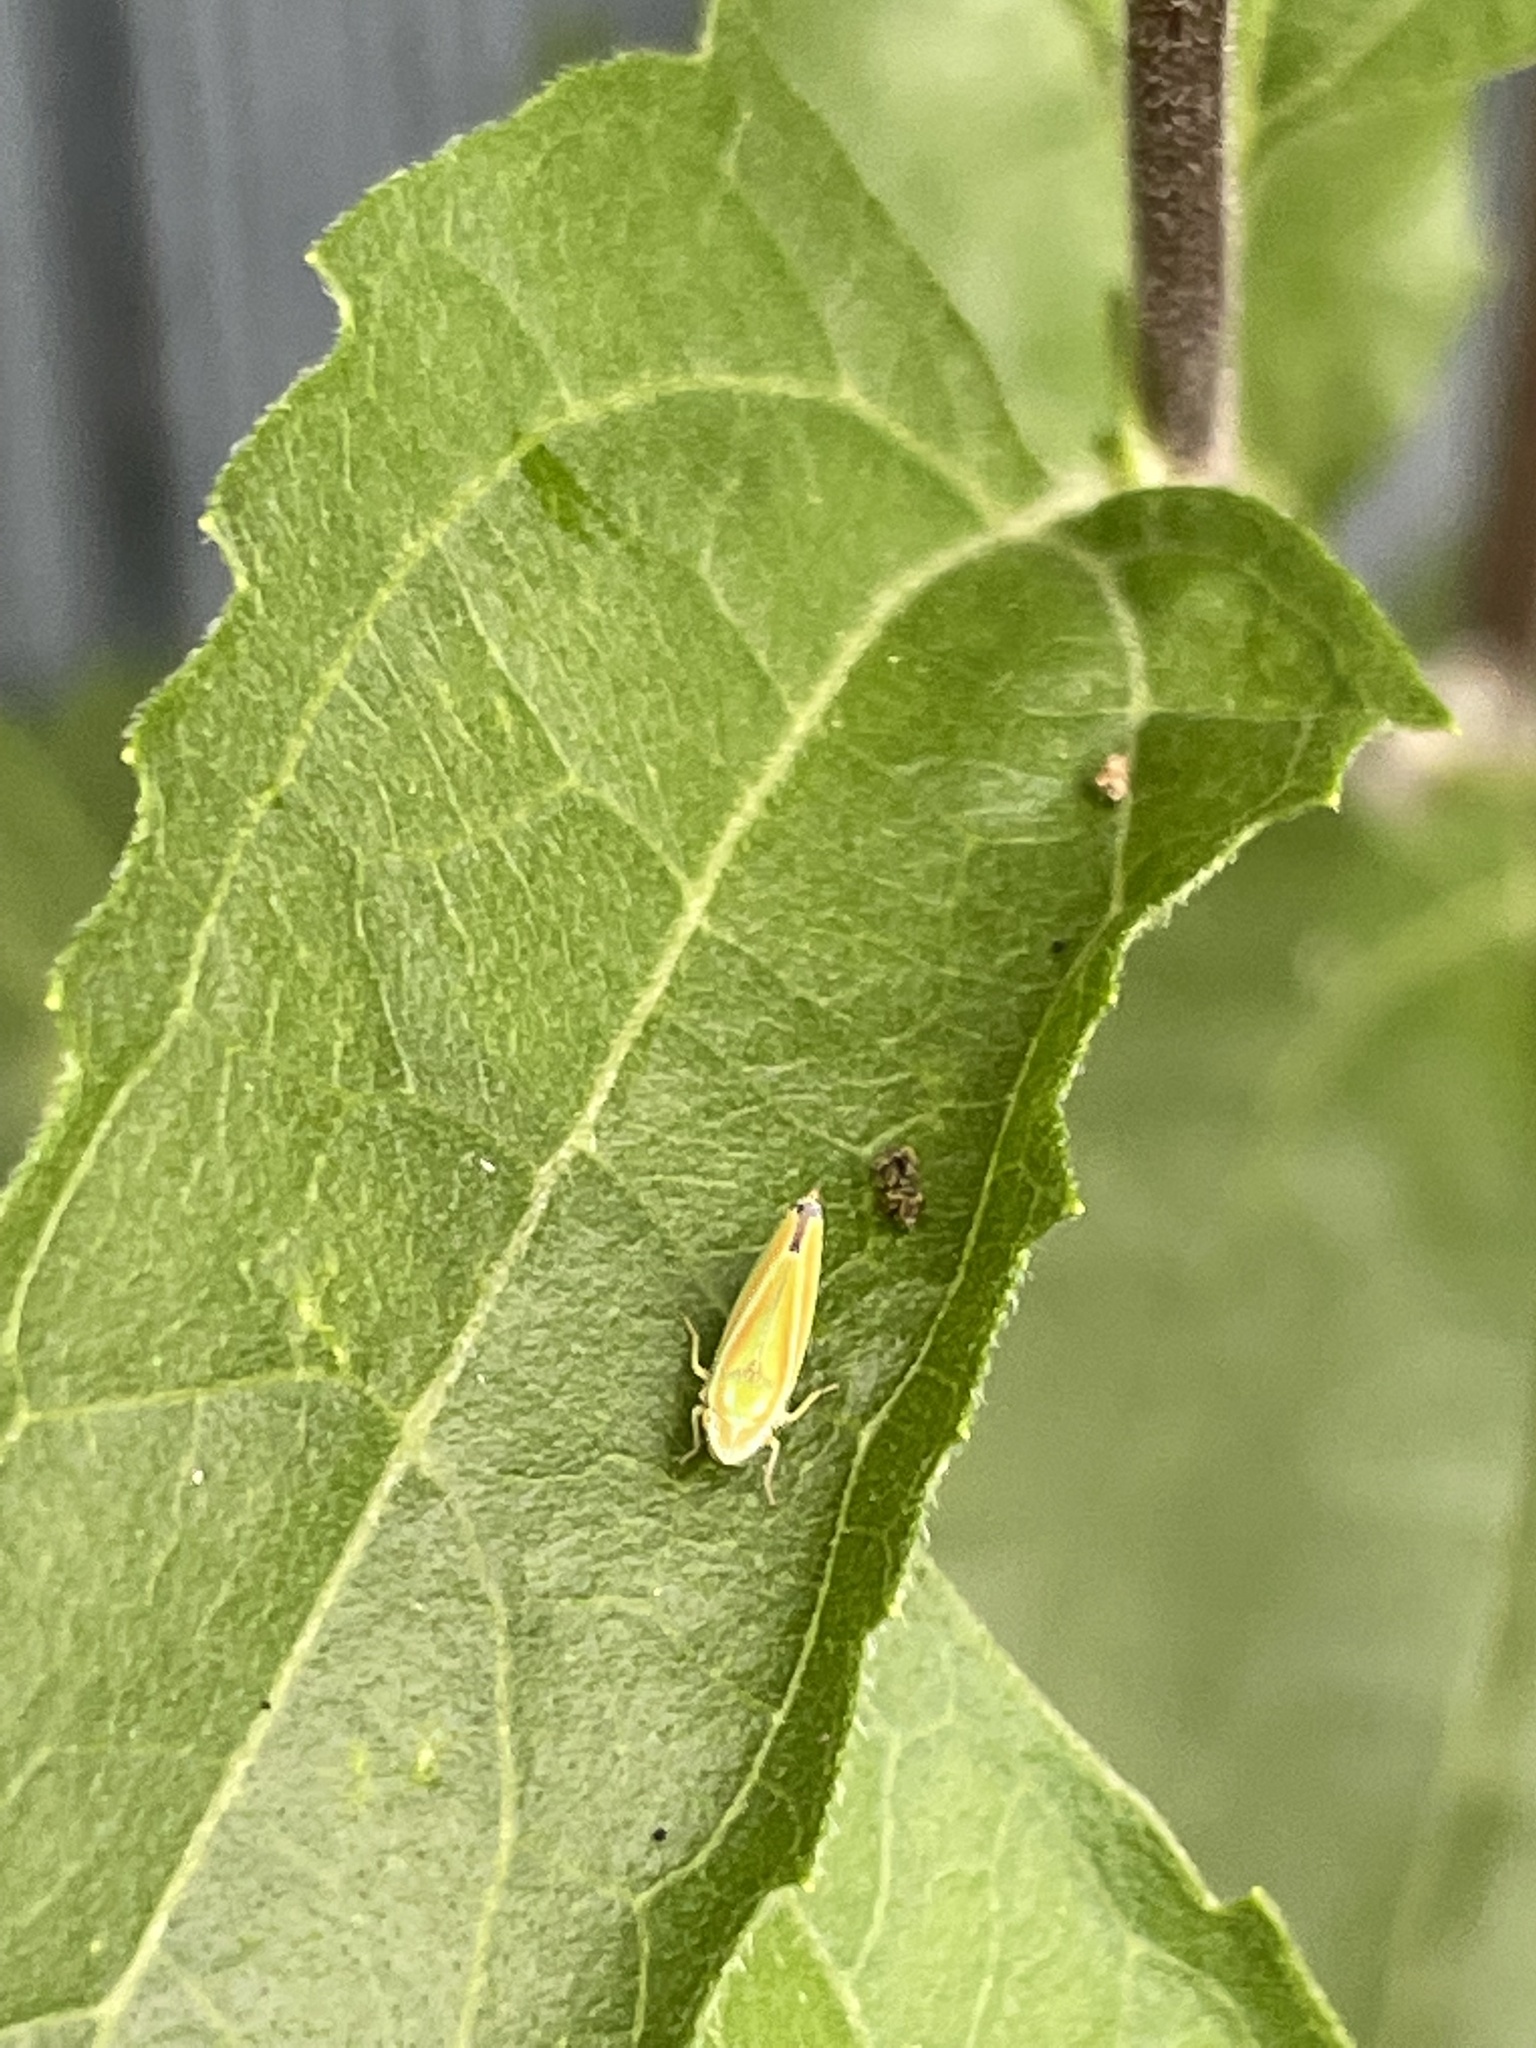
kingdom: Animalia
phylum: Arthropoda
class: Insecta
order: Hemiptera
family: Cicadellidae
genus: Graphocephala
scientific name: Graphocephala versuta
